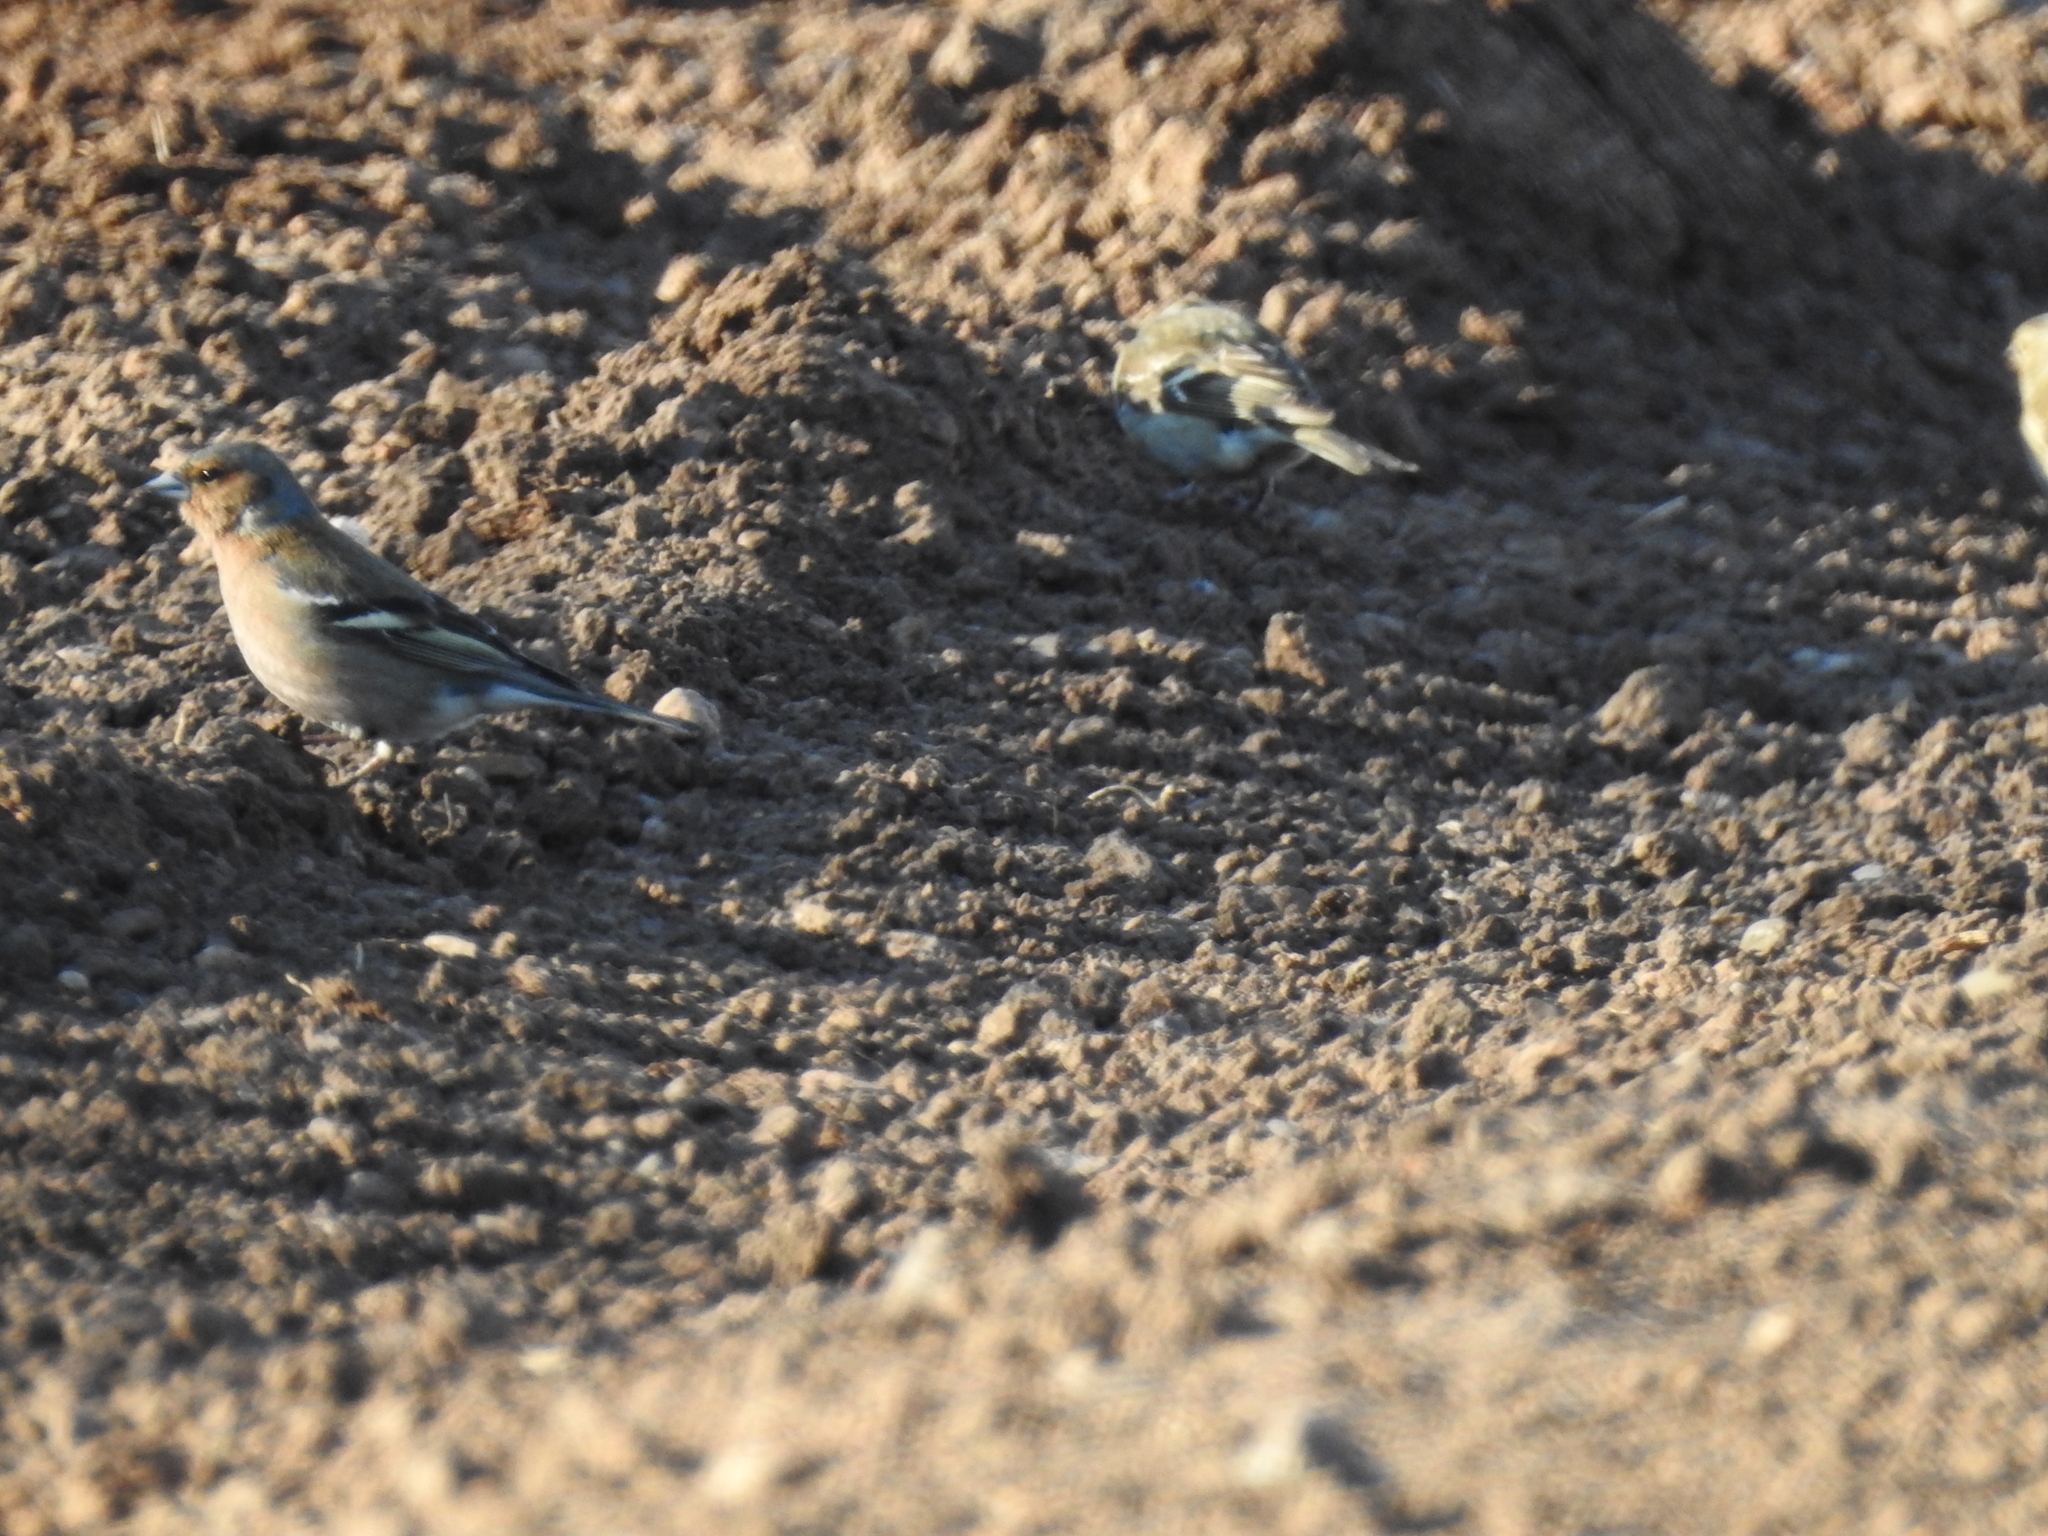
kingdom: Animalia
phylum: Chordata
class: Aves
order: Passeriformes
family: Fringillidae
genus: Fringilla
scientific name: Fringilla coelebs
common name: Common chaffinch
